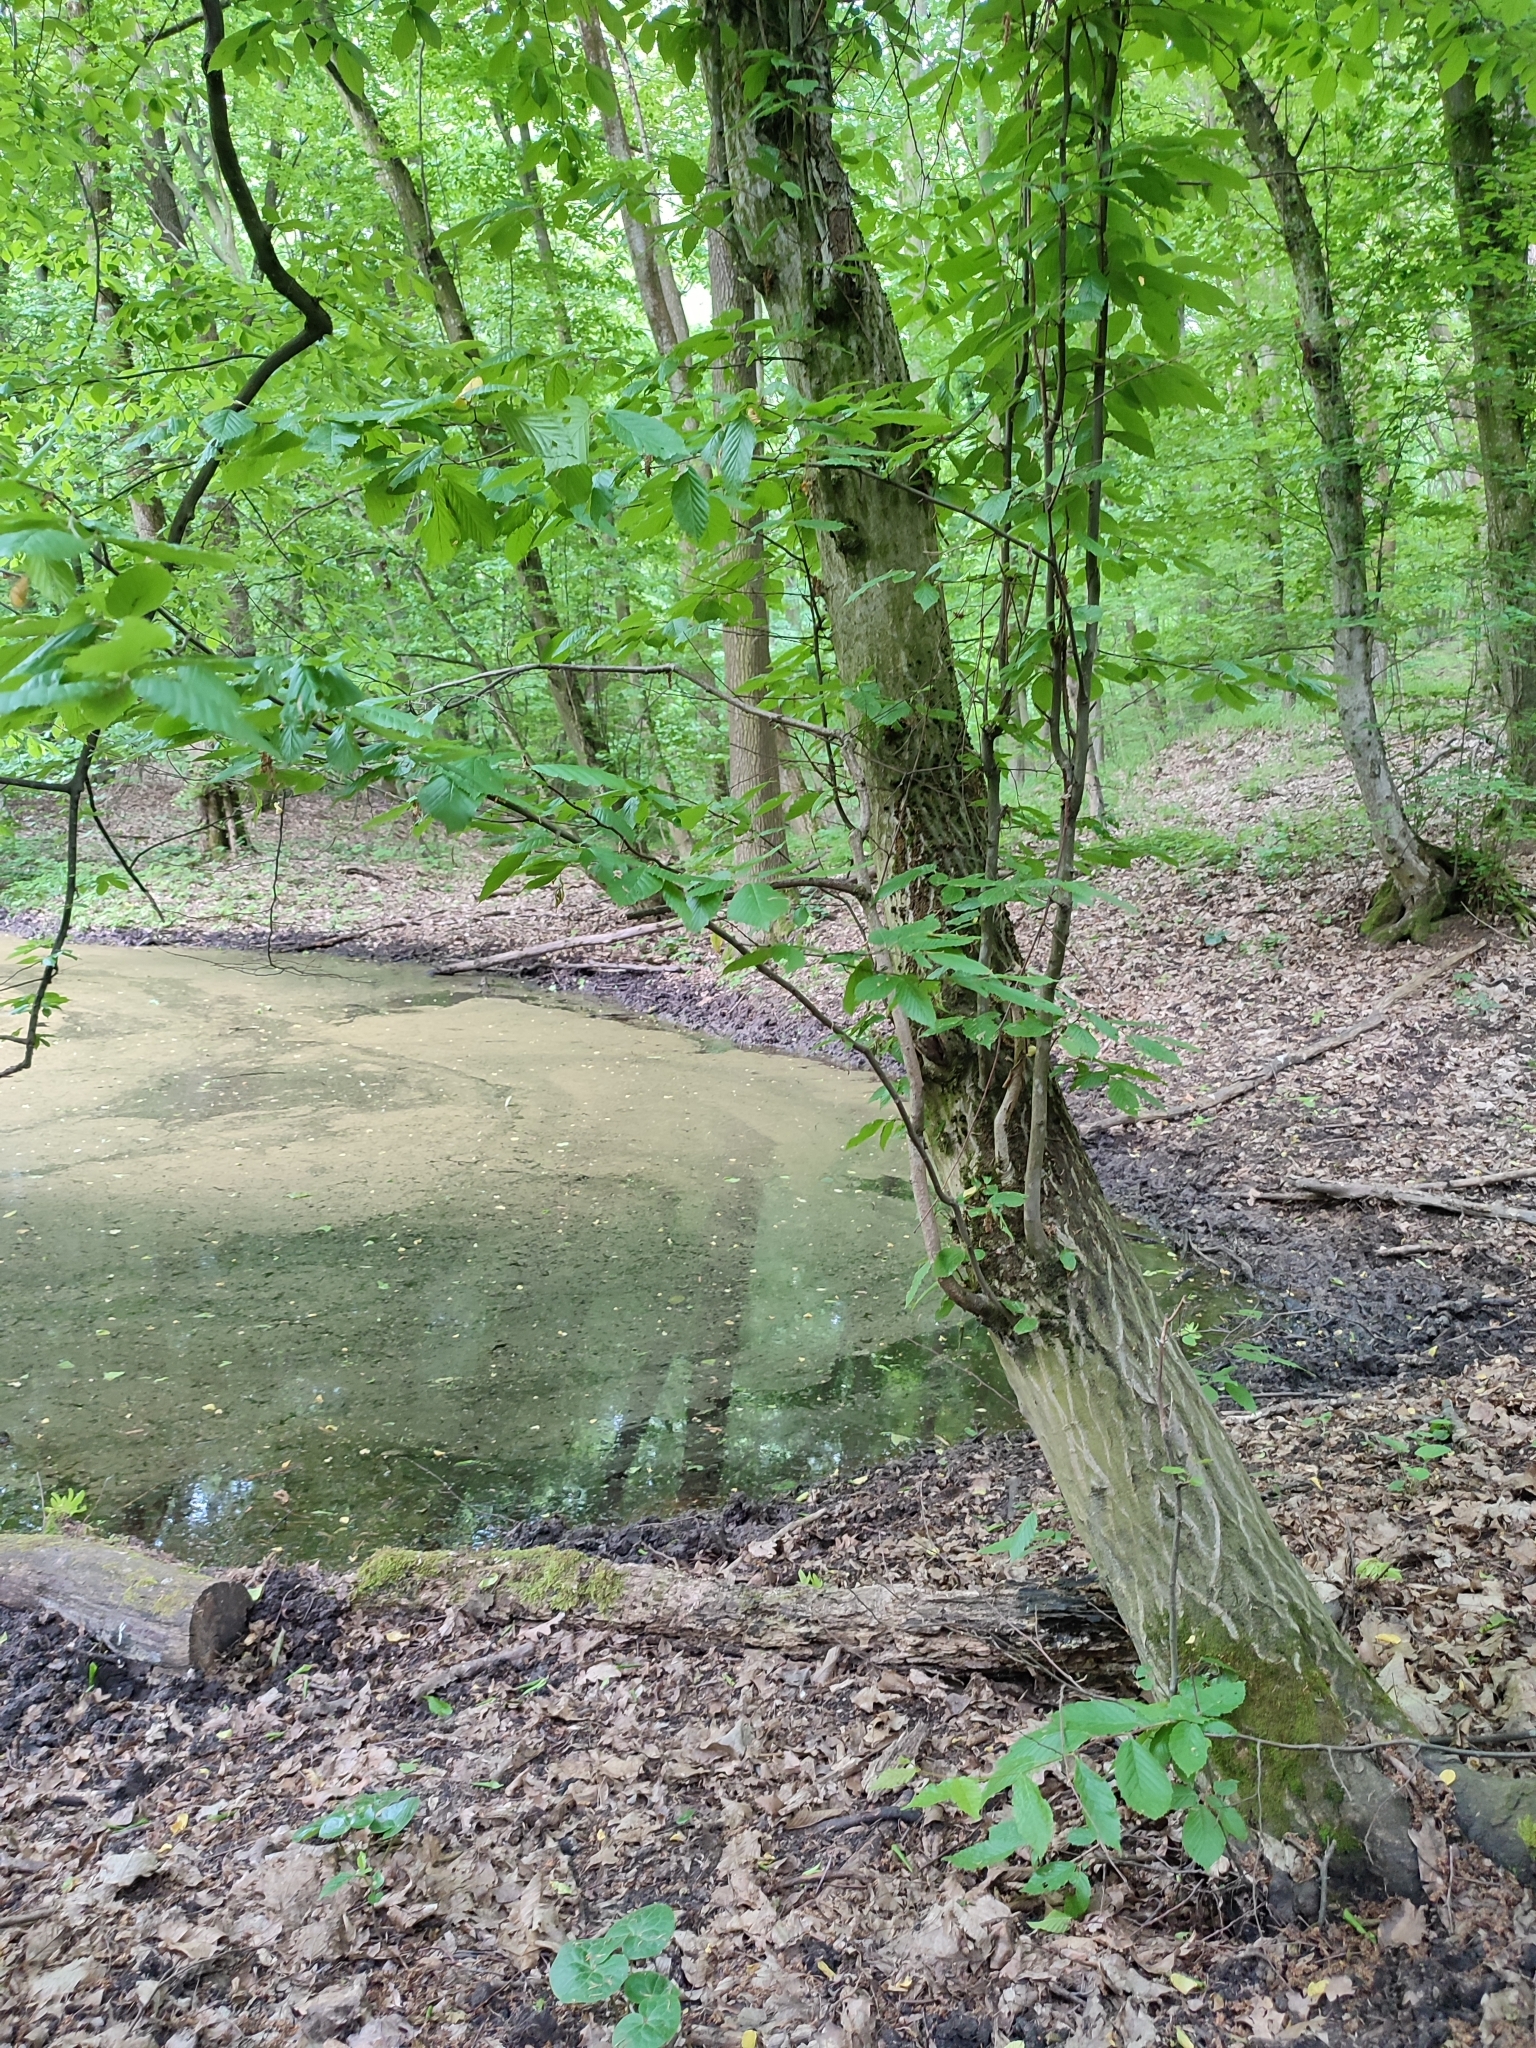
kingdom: Plantae
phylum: Tracheophyta
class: Magnoliopsida
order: Fagales
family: Betulaceae
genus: Carpinus
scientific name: Carpinus betulus
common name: Hornbeam
